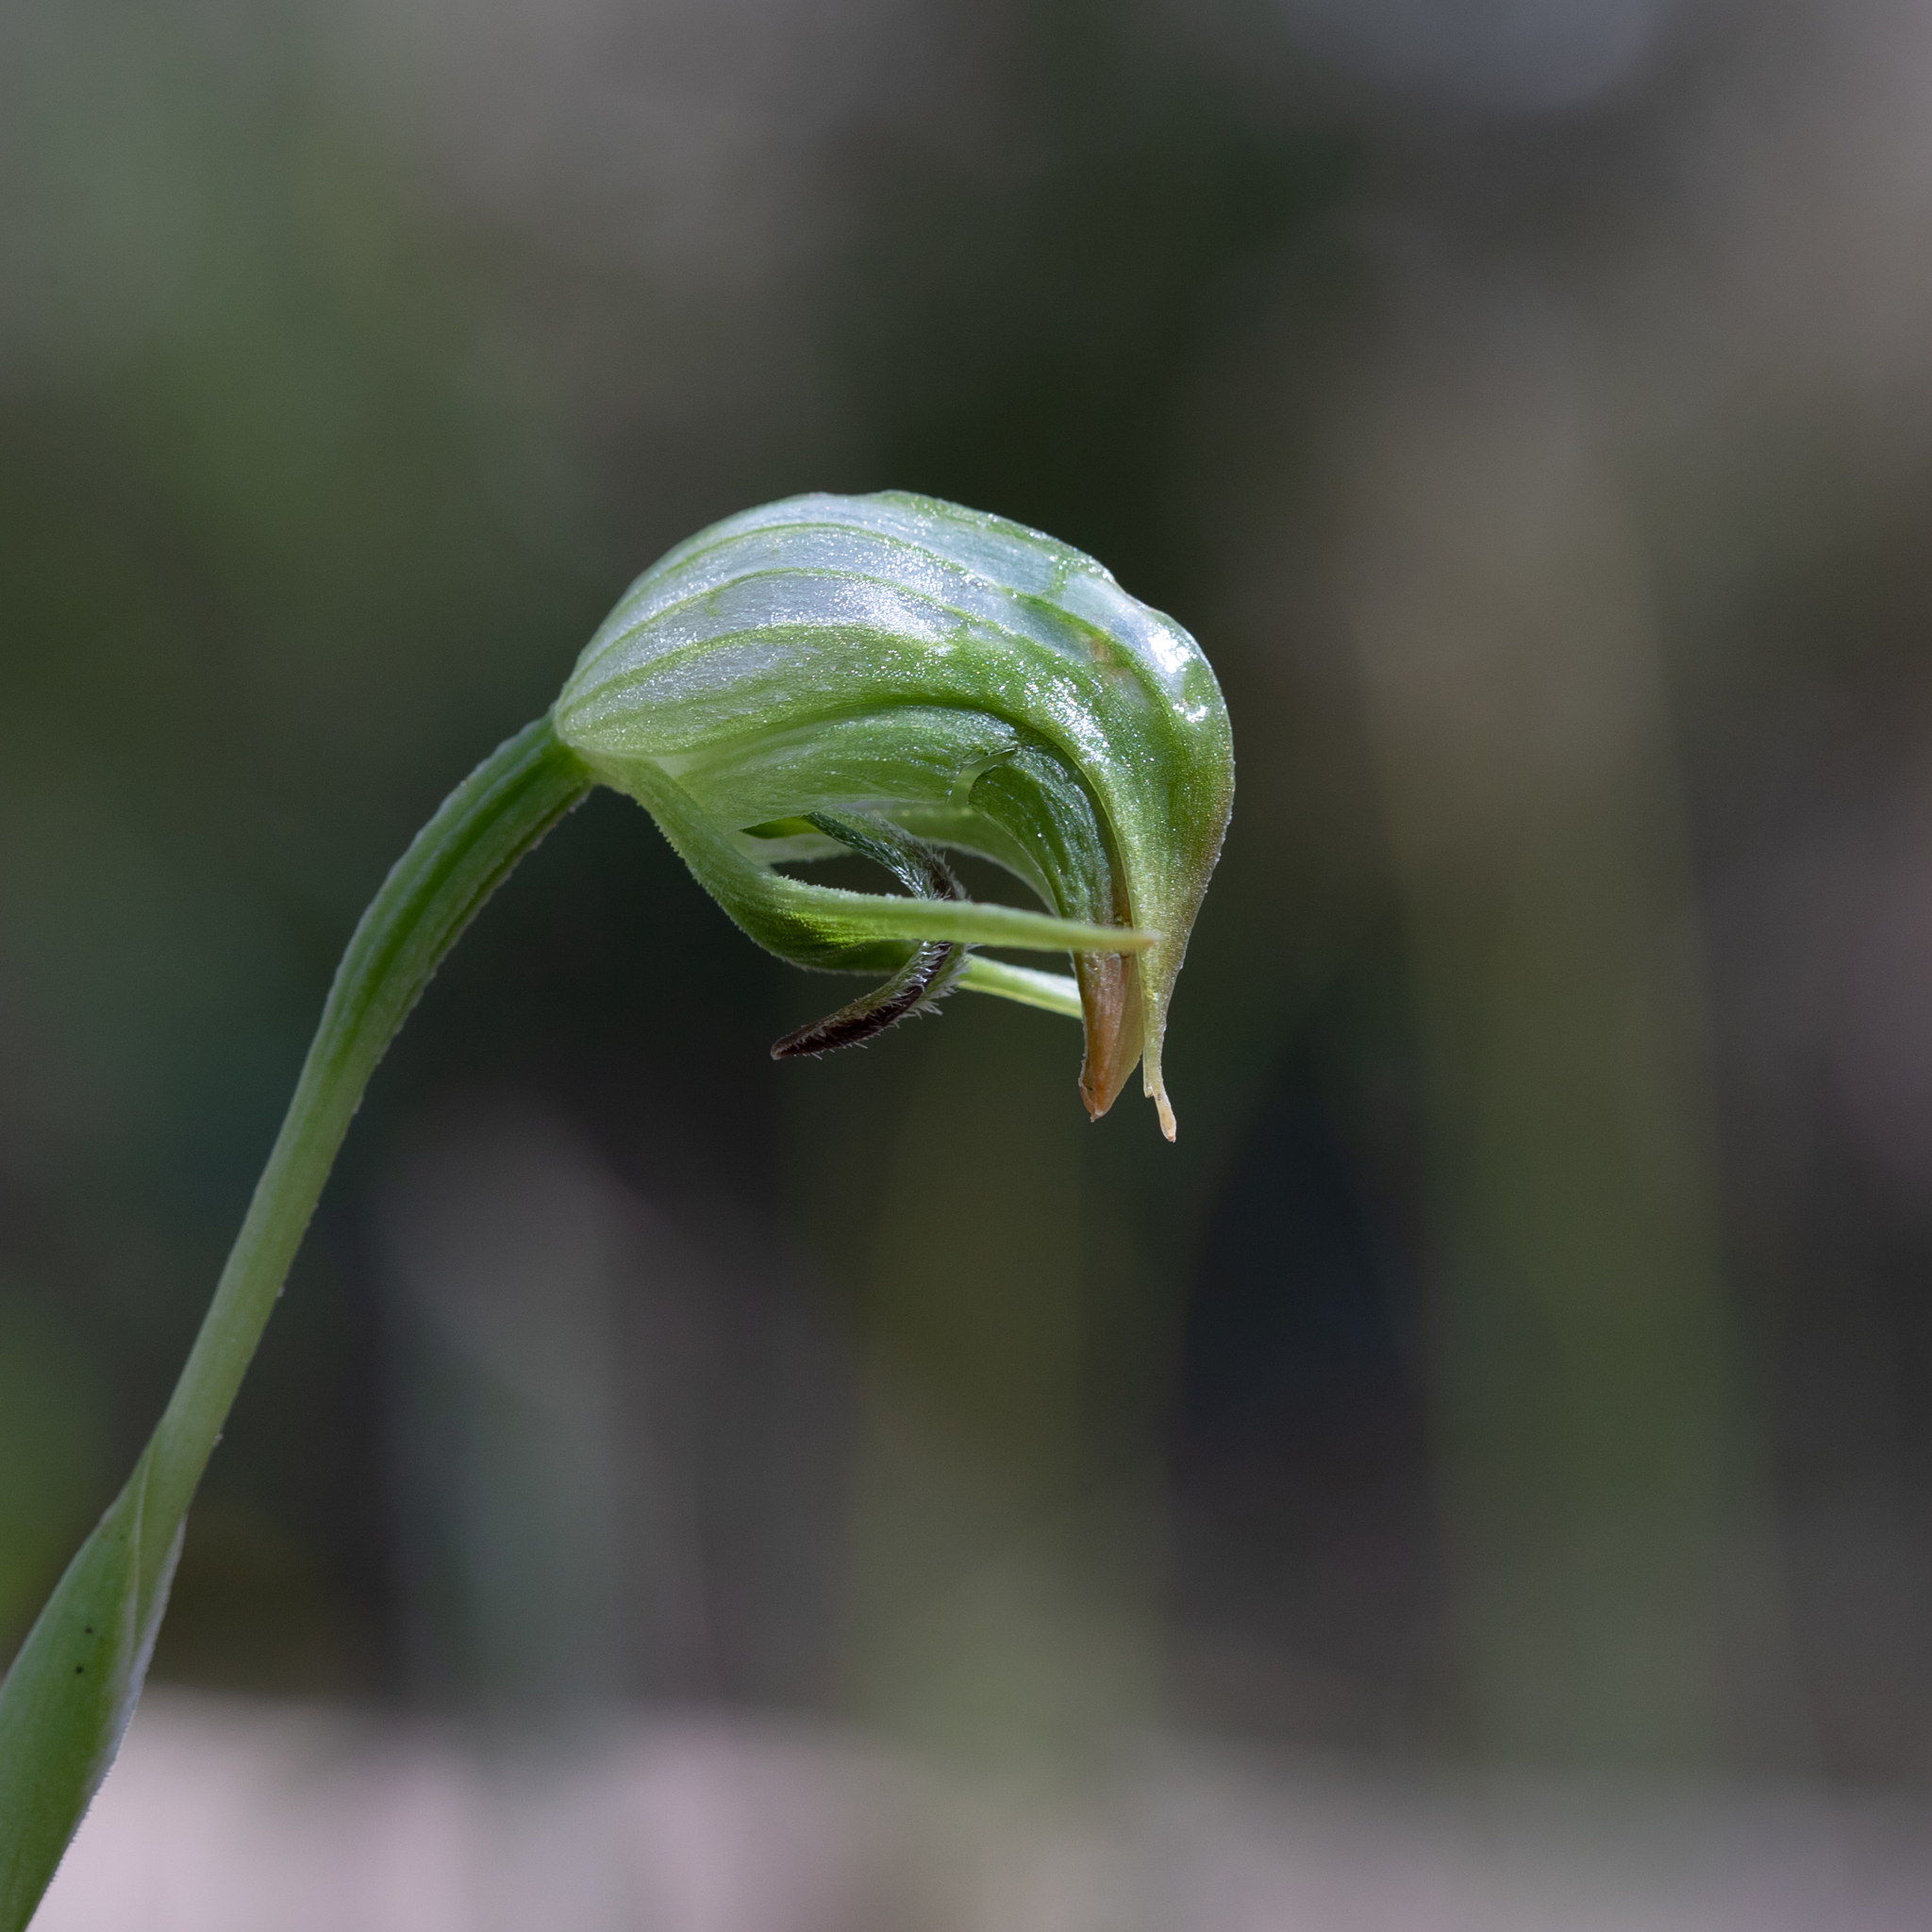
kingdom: Plantae
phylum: Tracheophyta
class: Liliopsida
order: Asparagales
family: Orchidaceae
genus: Pterostylis
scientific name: Pterostylis nutans
